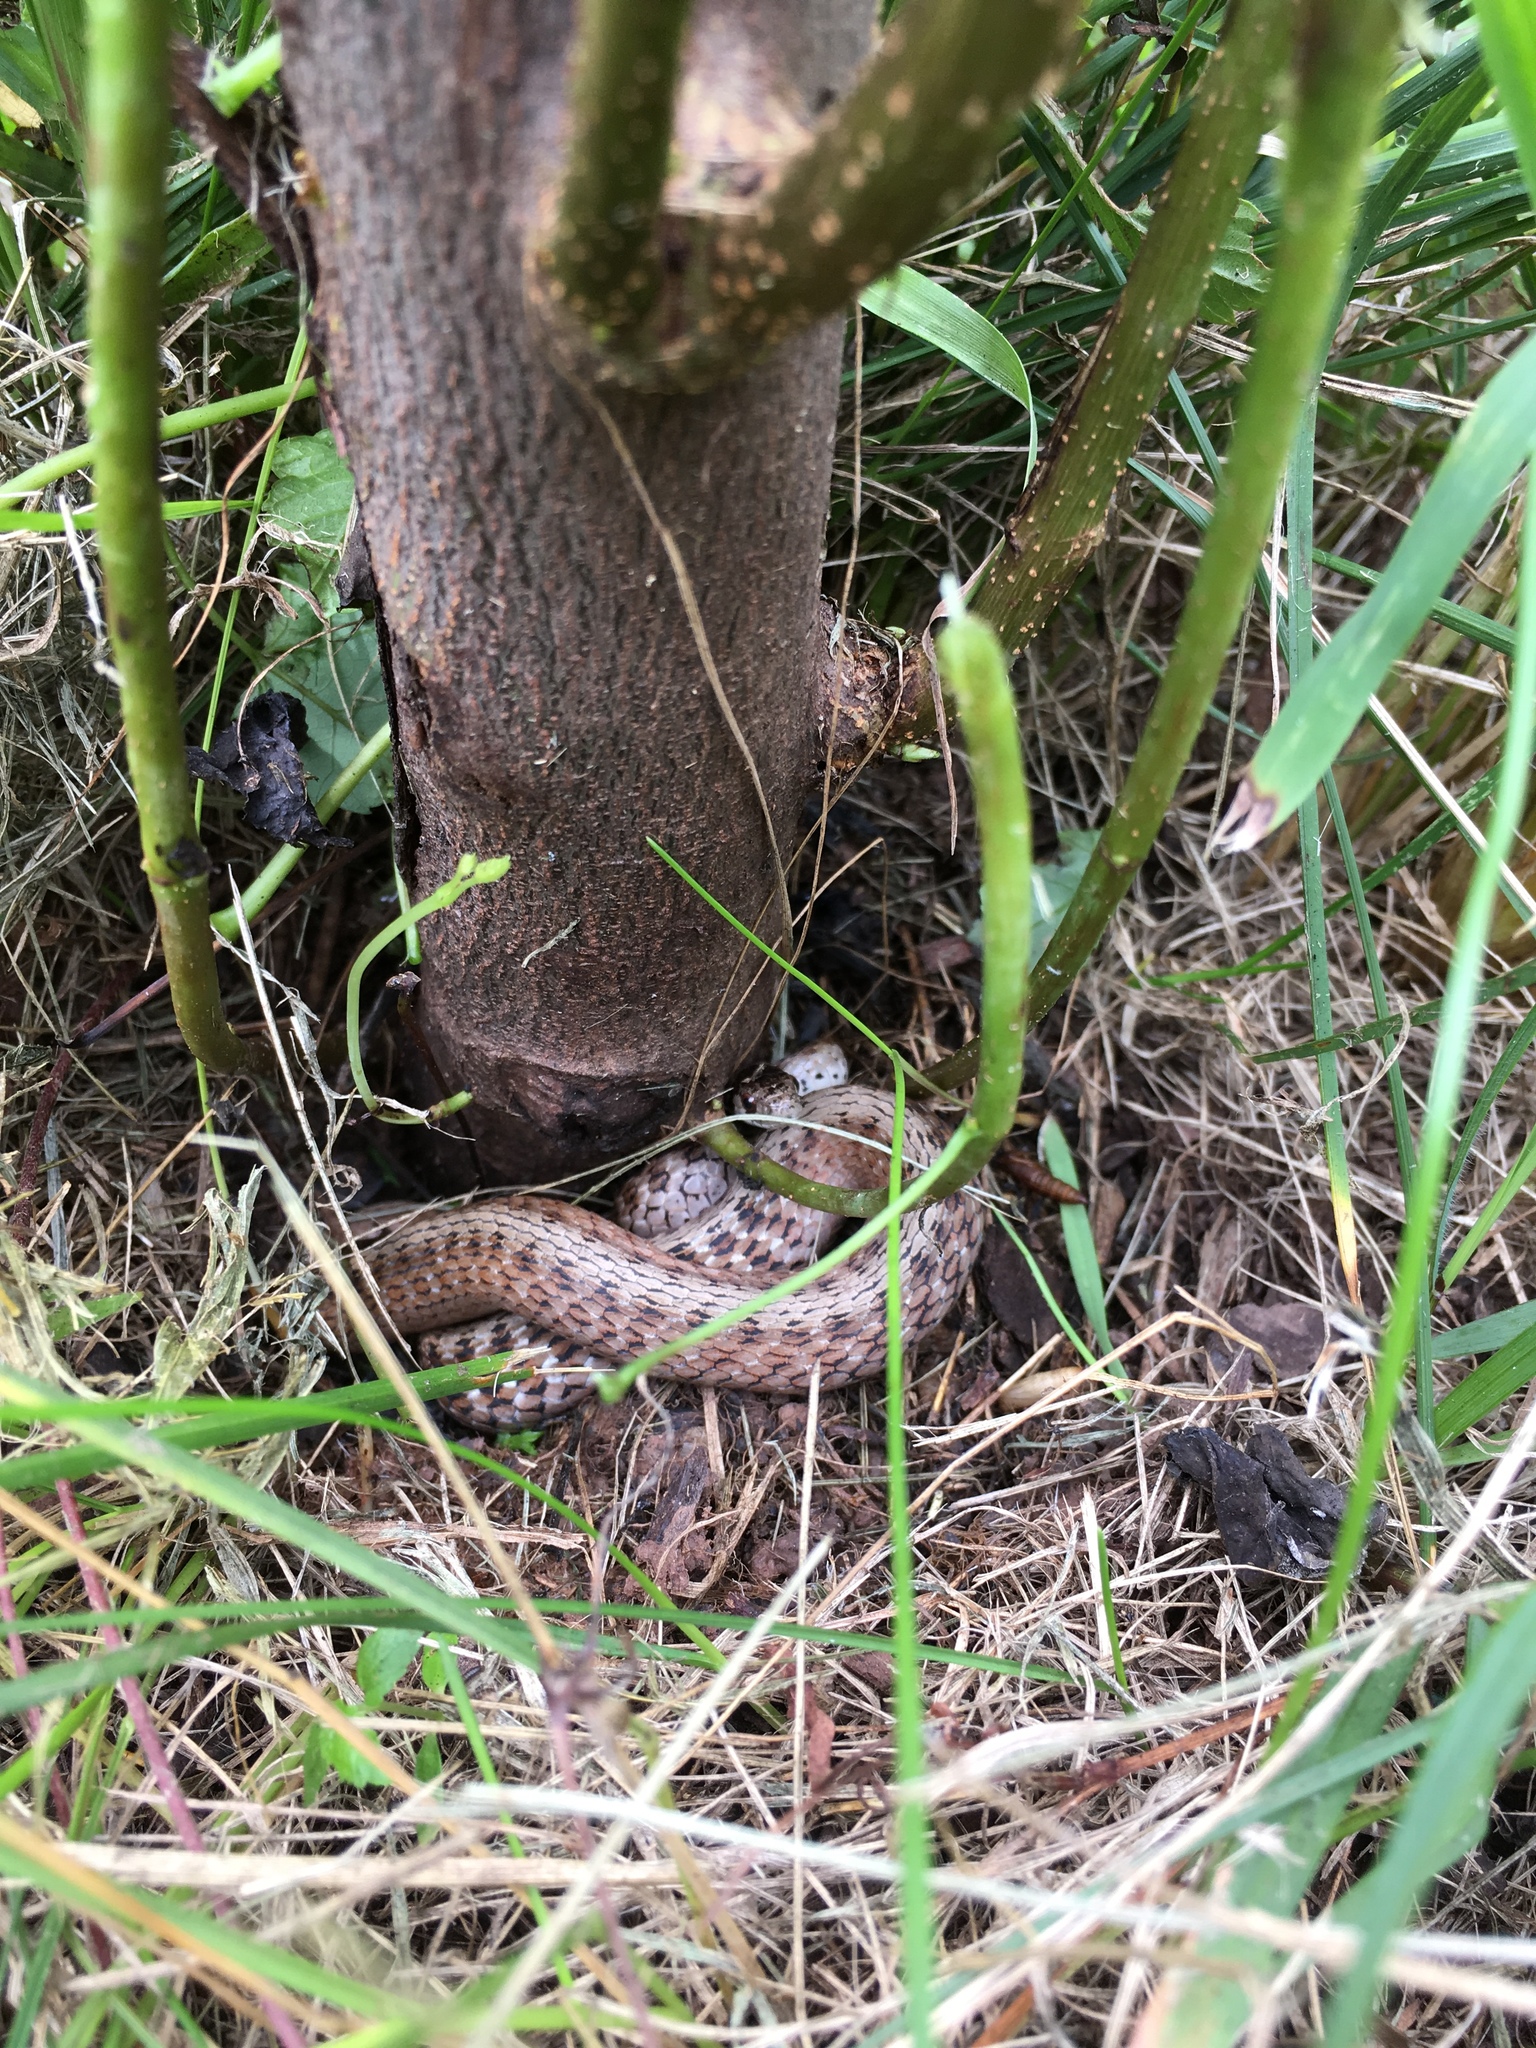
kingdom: Animalia
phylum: Chordata
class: Squamata
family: Colubridae
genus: Storeria
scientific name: Storeria dekayi
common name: (dekay’s) brown snake
